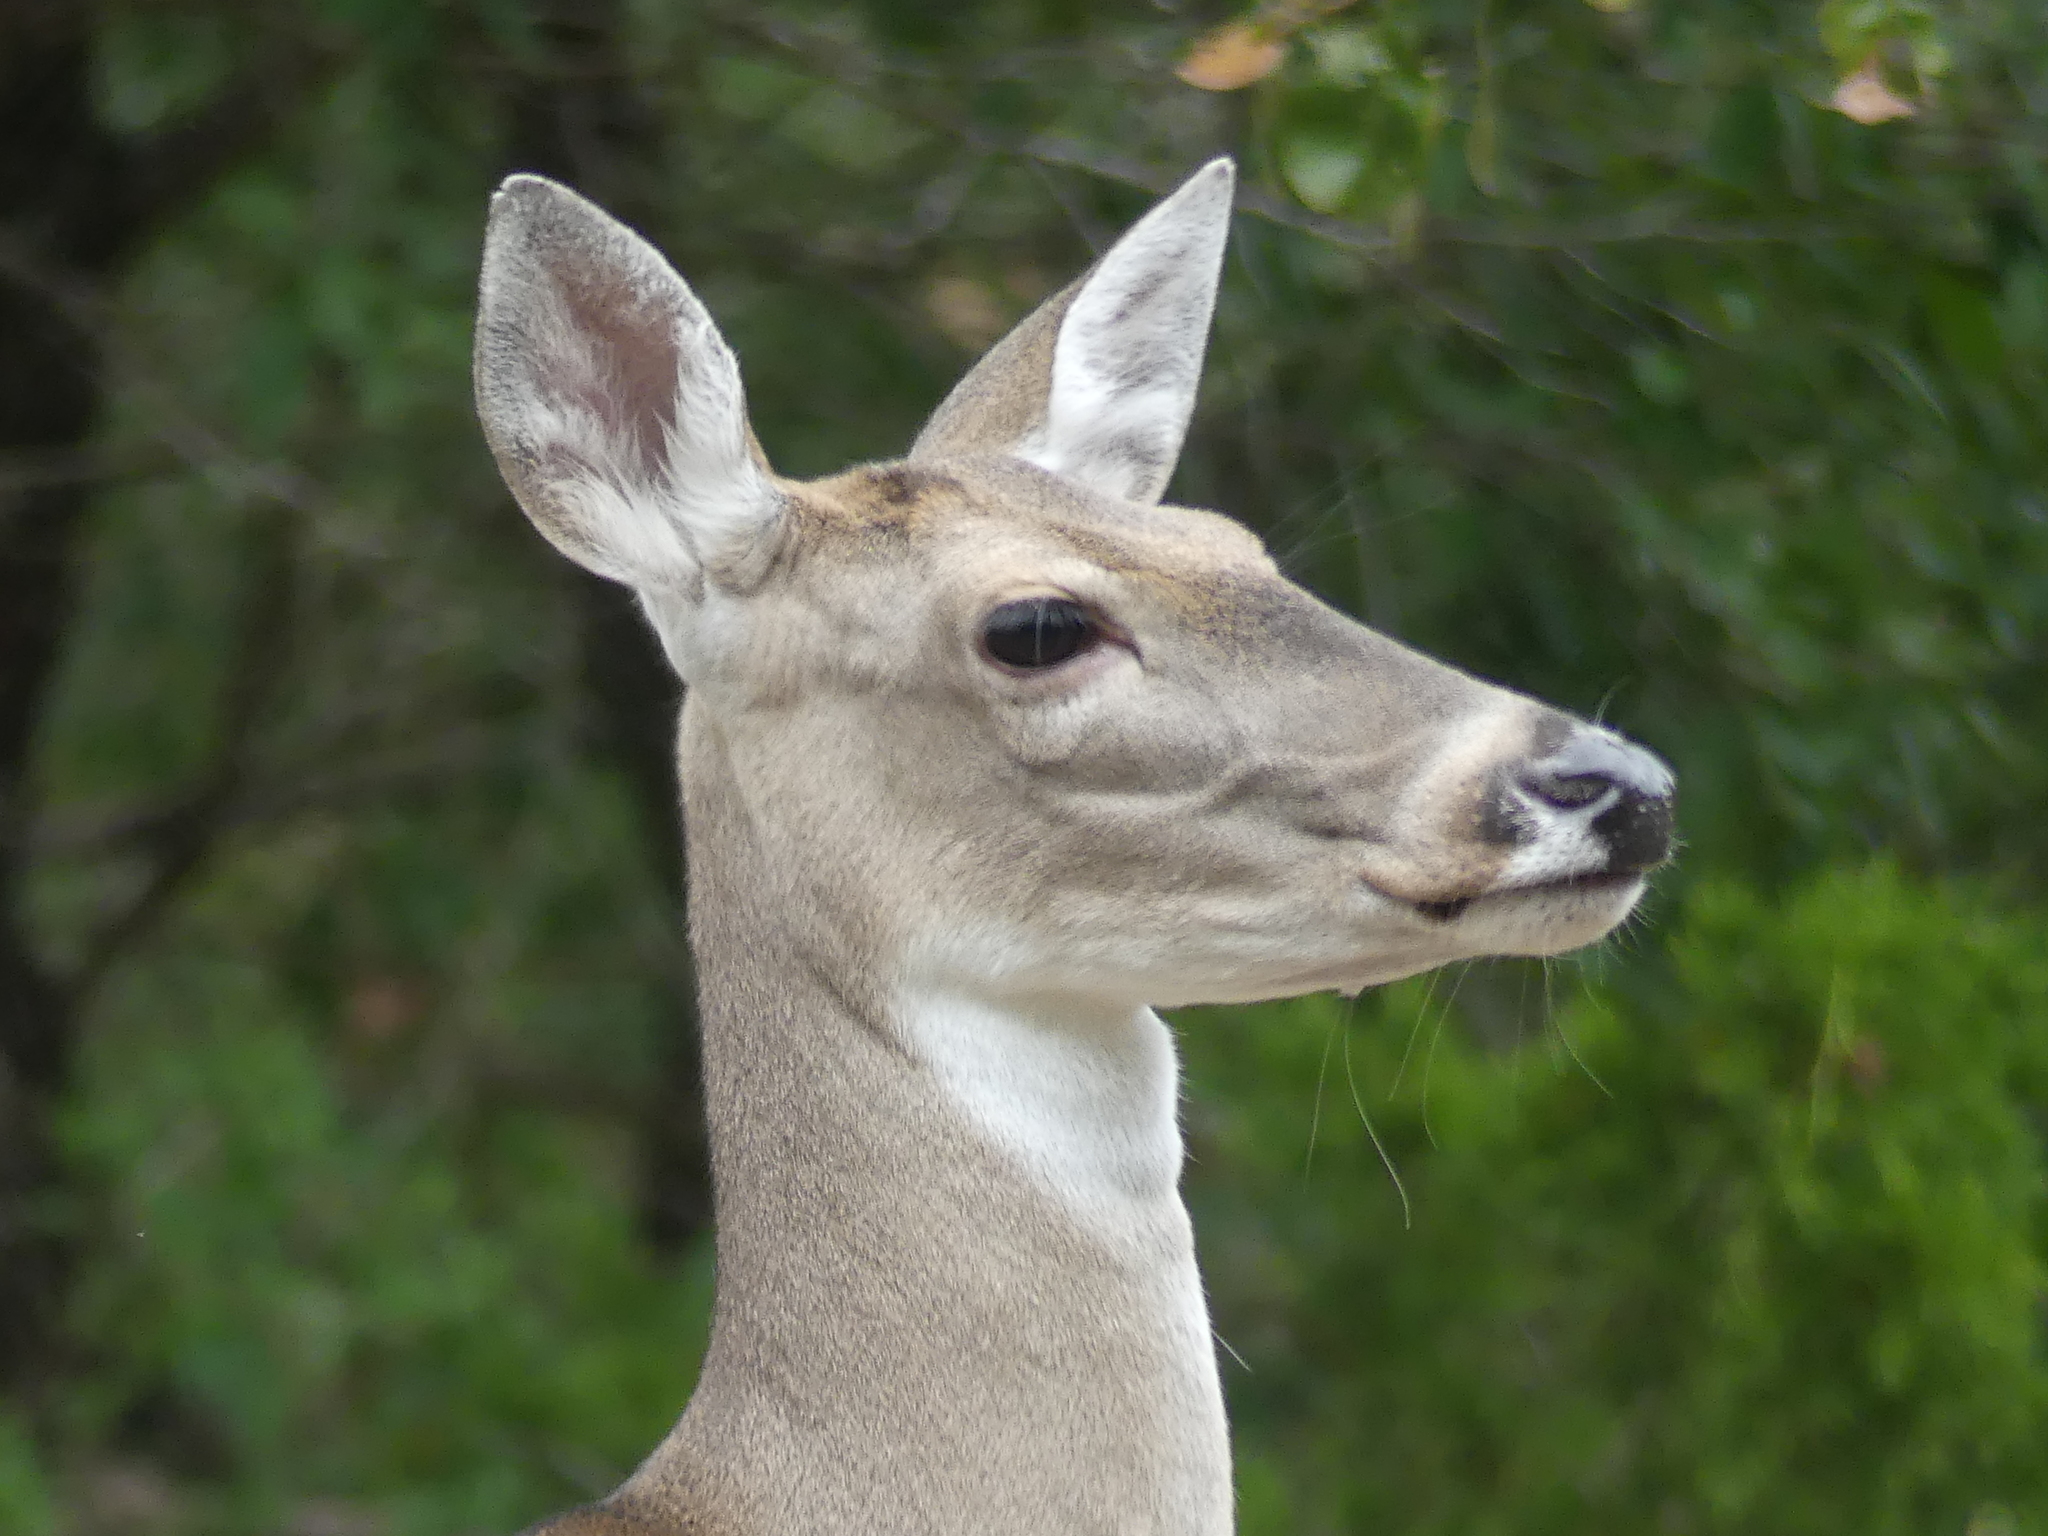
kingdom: Animalia
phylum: Chordata
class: Mammalia
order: Artiodactyla
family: Cervidae
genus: Odocoileus
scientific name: Odocoileus virginianus
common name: White-tailed deer
